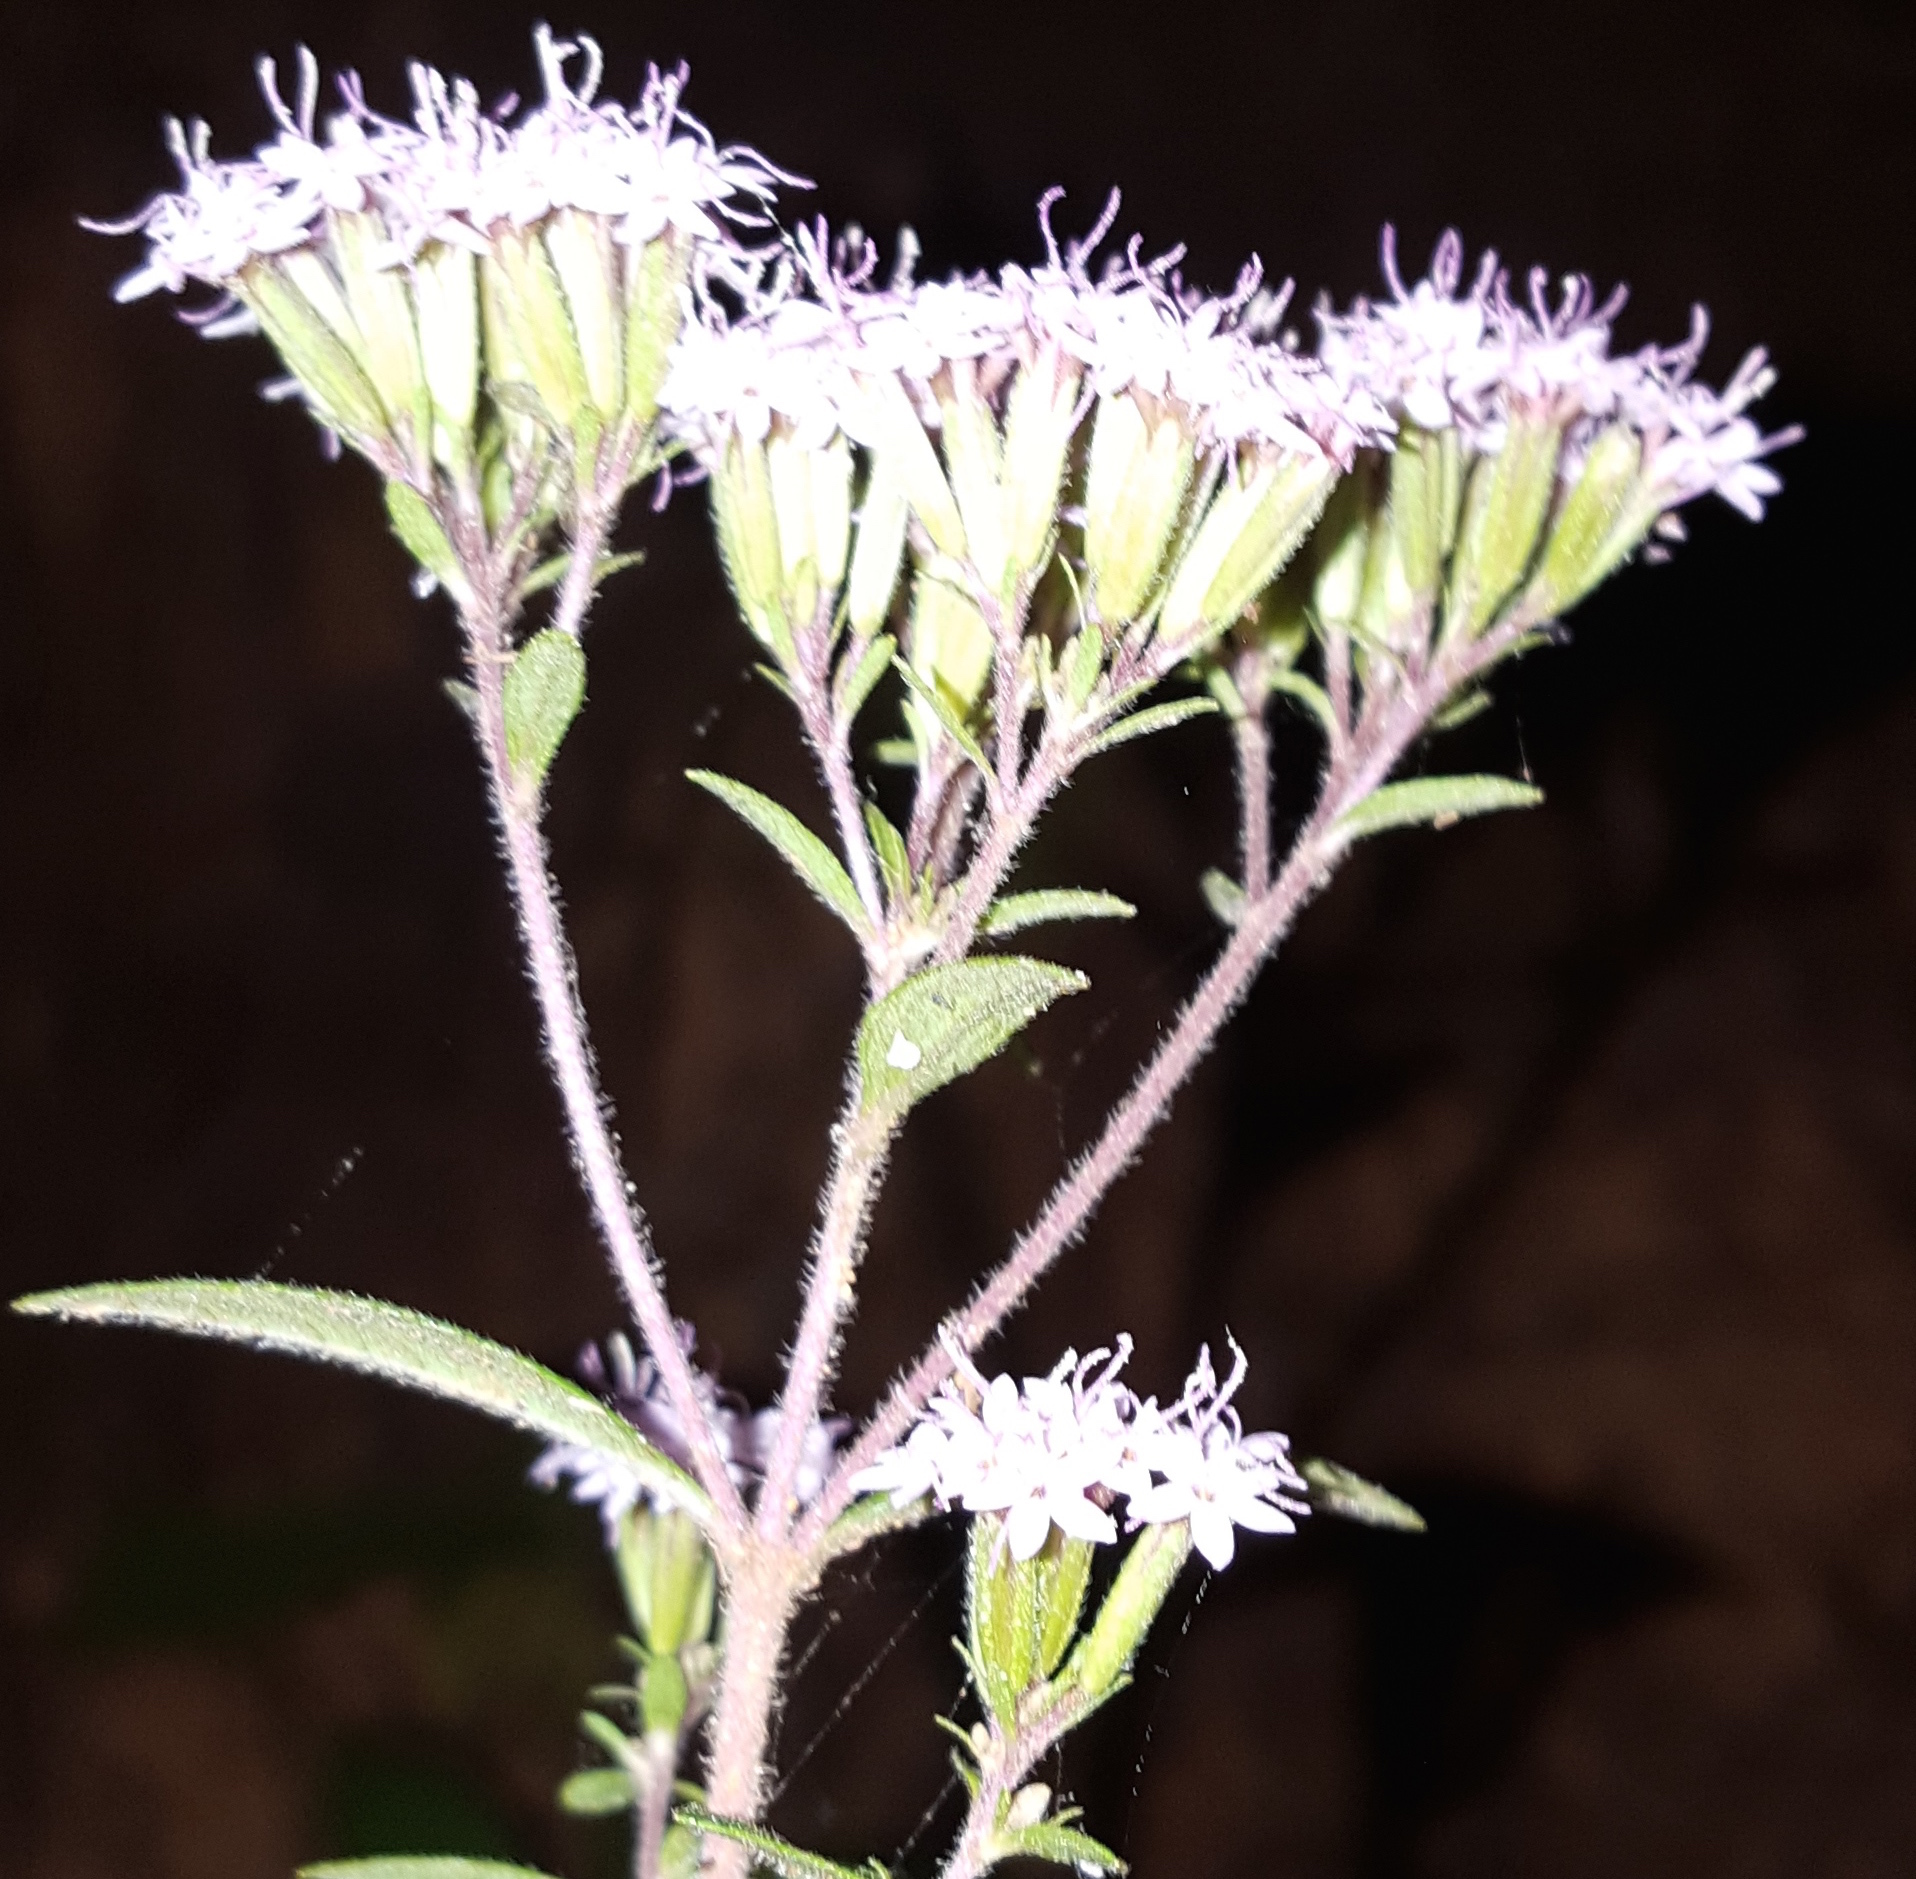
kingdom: Plantae
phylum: Tracheophyta
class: Magnoliopsida
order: Asterales
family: Asteraceae
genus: Stevia
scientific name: Stevia triflora
